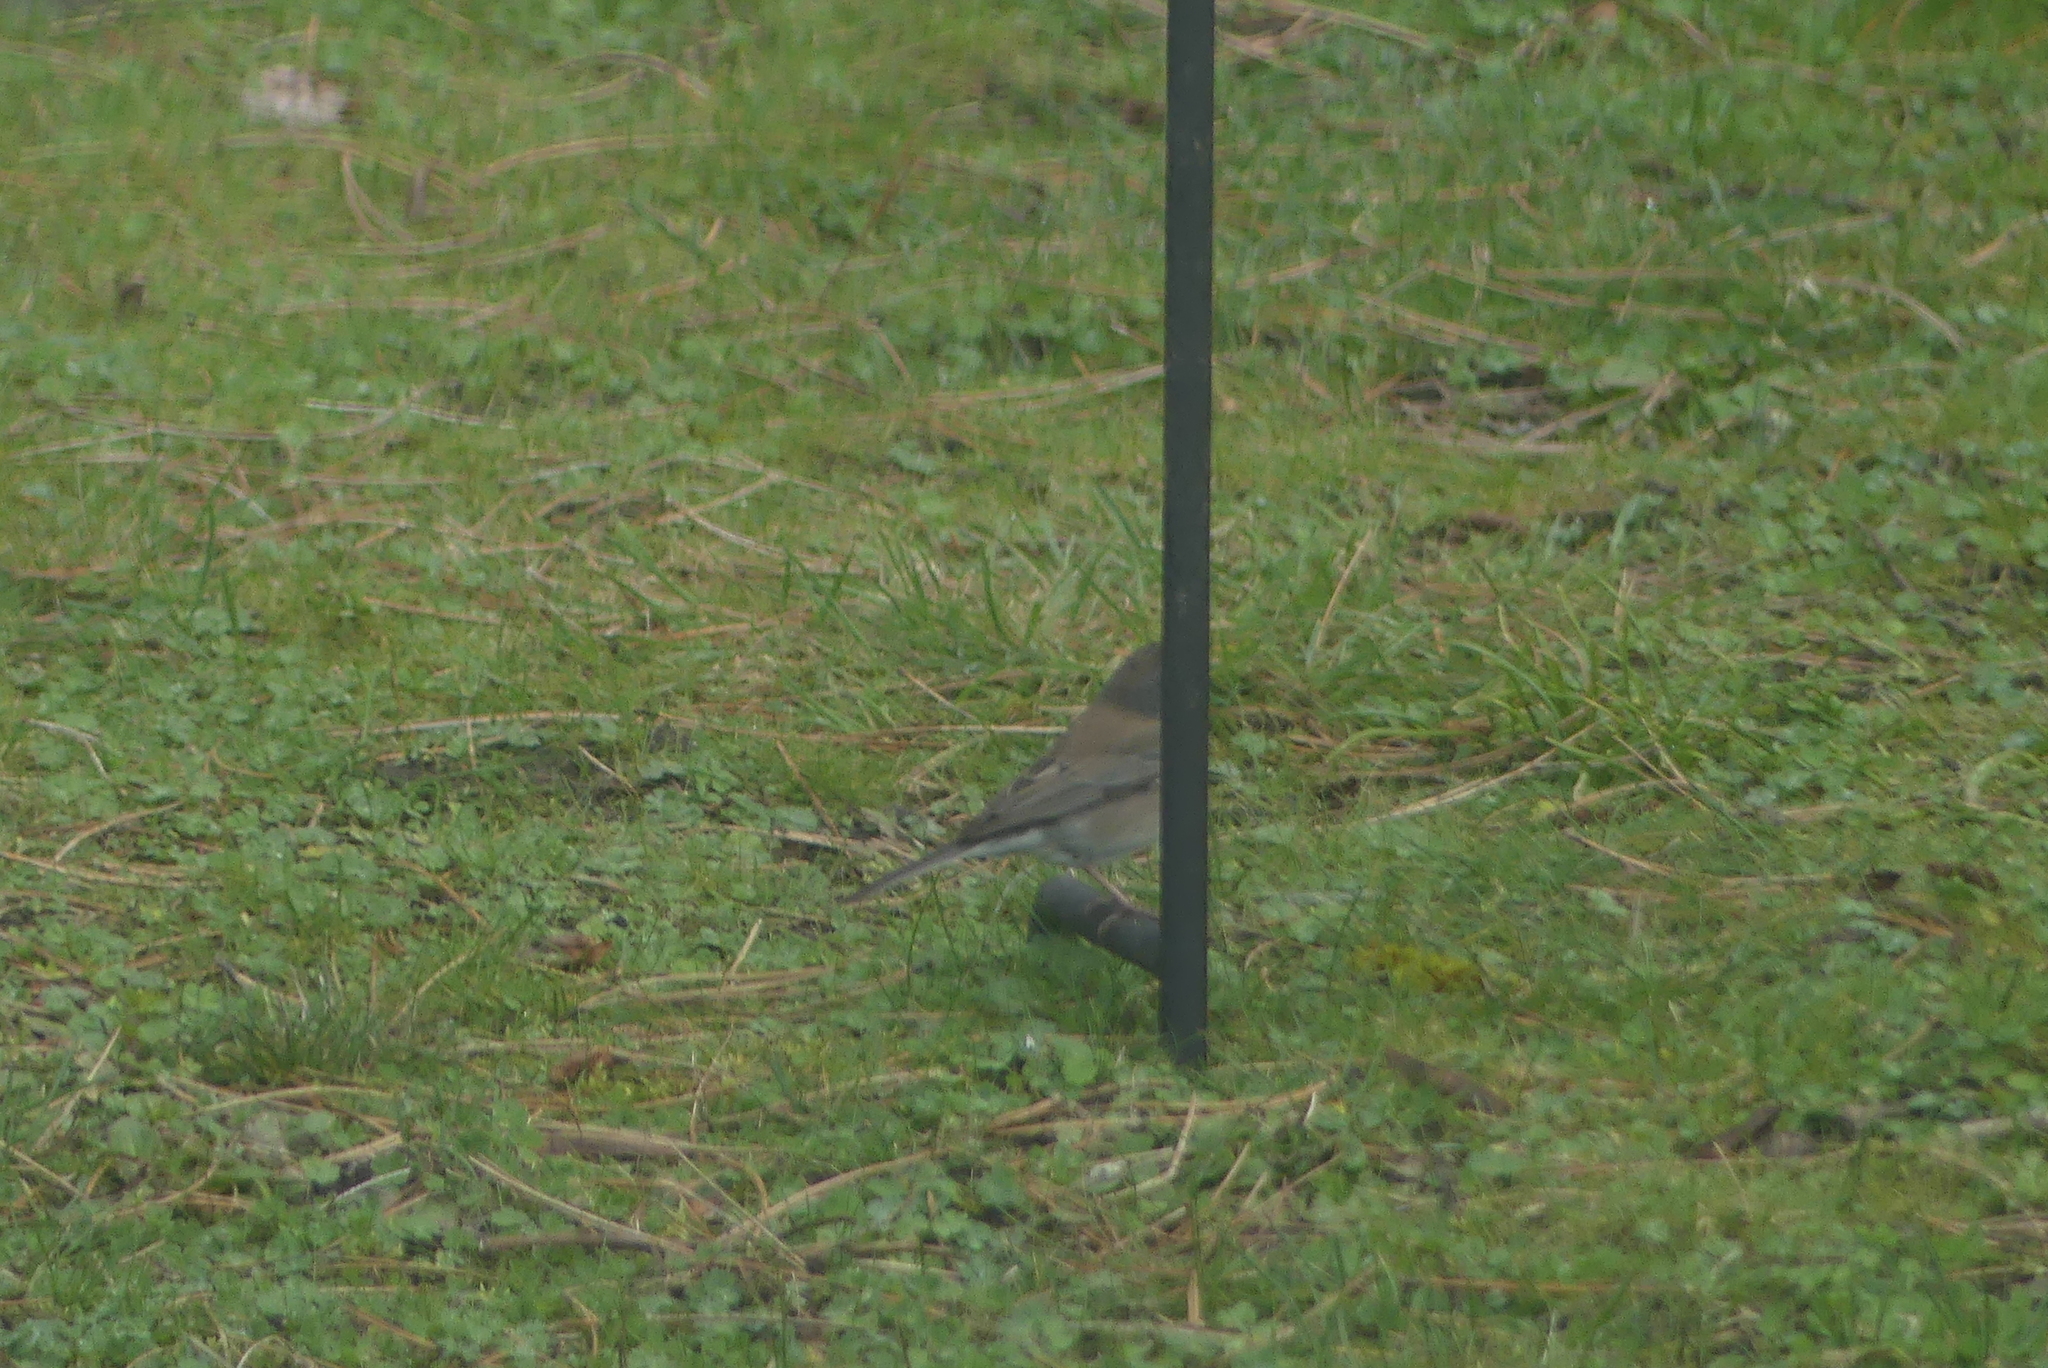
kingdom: Animalia
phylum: Chordata
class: Aves
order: Passeriformes
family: Passerellidae
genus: Junco
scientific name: Junco hyemalis
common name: Dark-eyed junco
